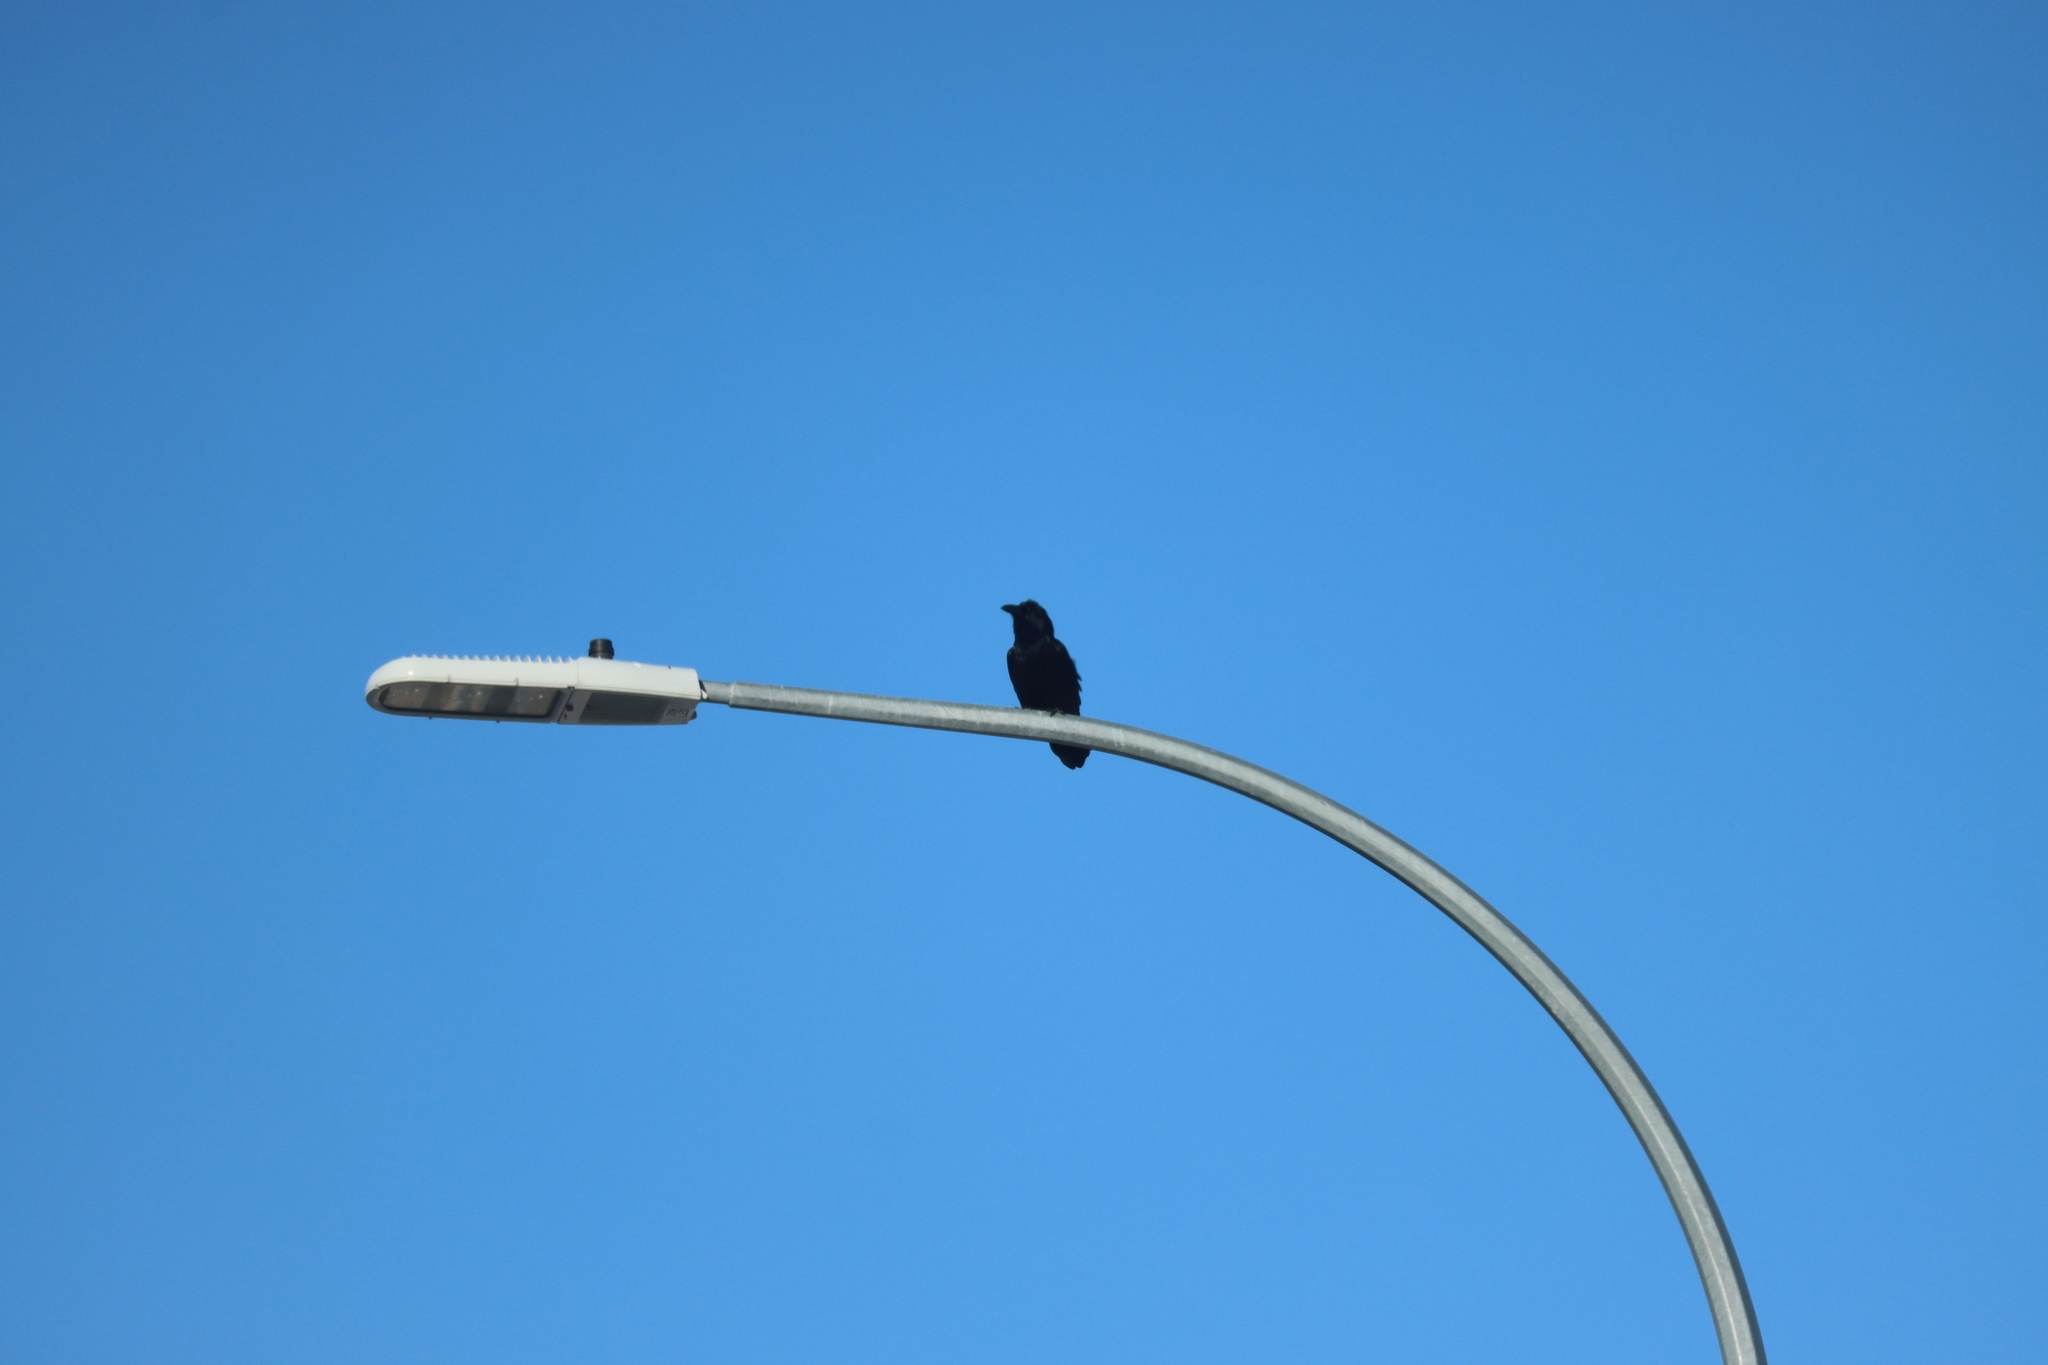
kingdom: Animalia
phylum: Chordata
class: Aves
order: Passeriformes
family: Corvidae
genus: Corvus
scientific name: Corvus corax
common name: Common raven
